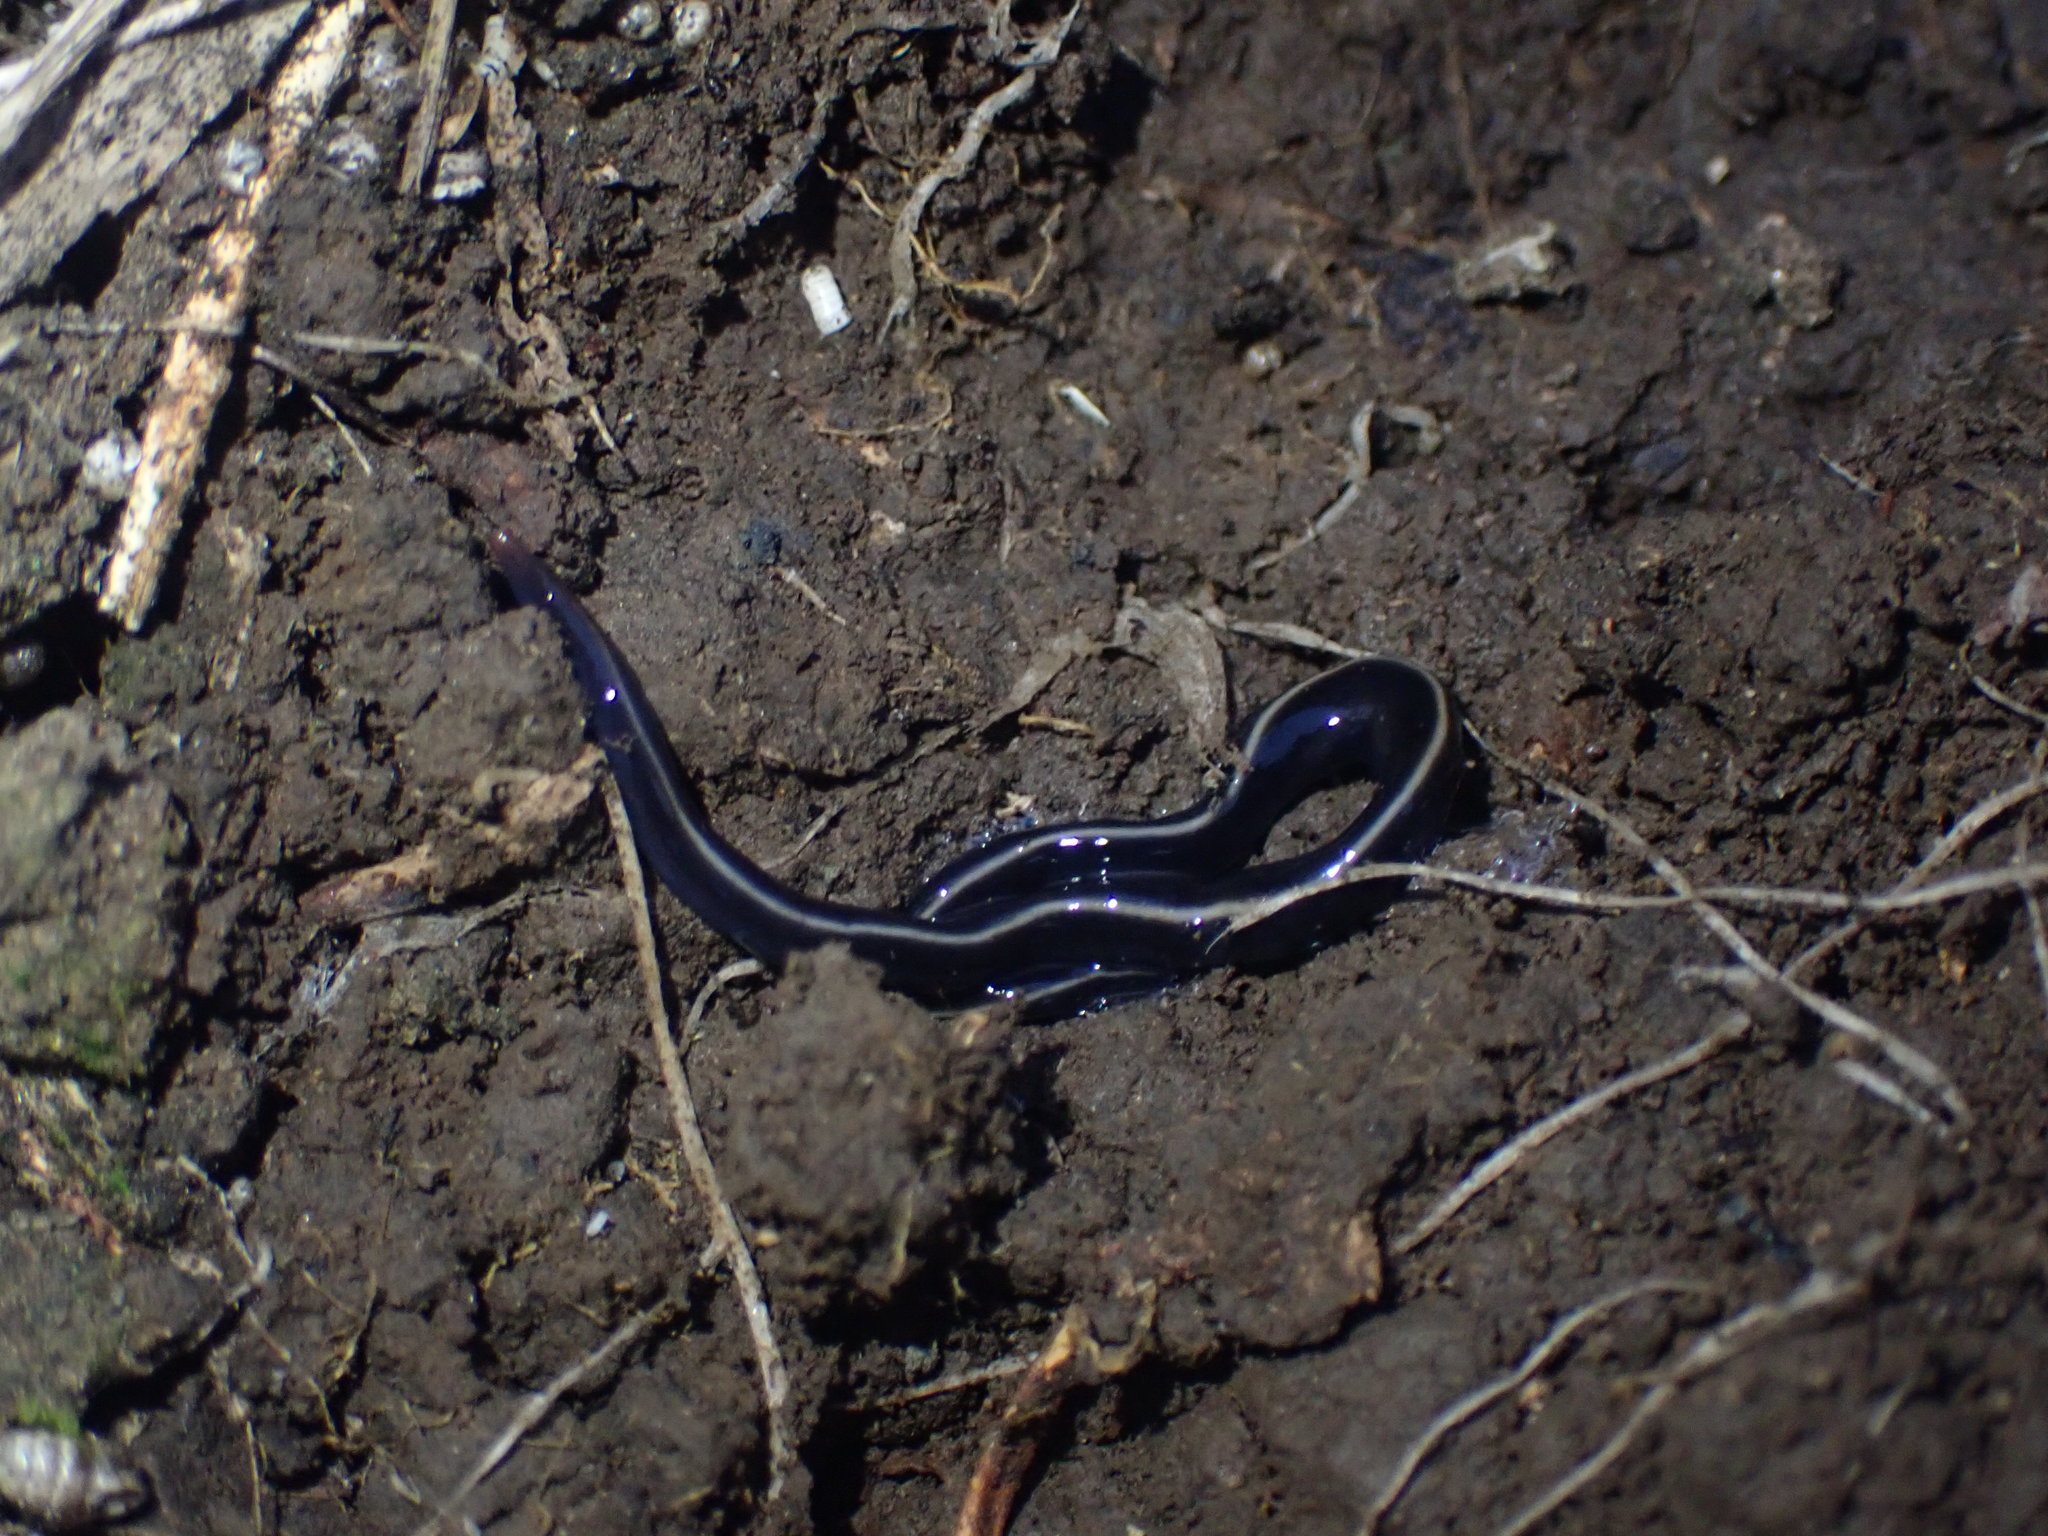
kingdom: Animalia
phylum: Platyhelminthes
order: Tricladida
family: Geoplanidae
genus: Caenoplana
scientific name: Caenoplana coerulea
